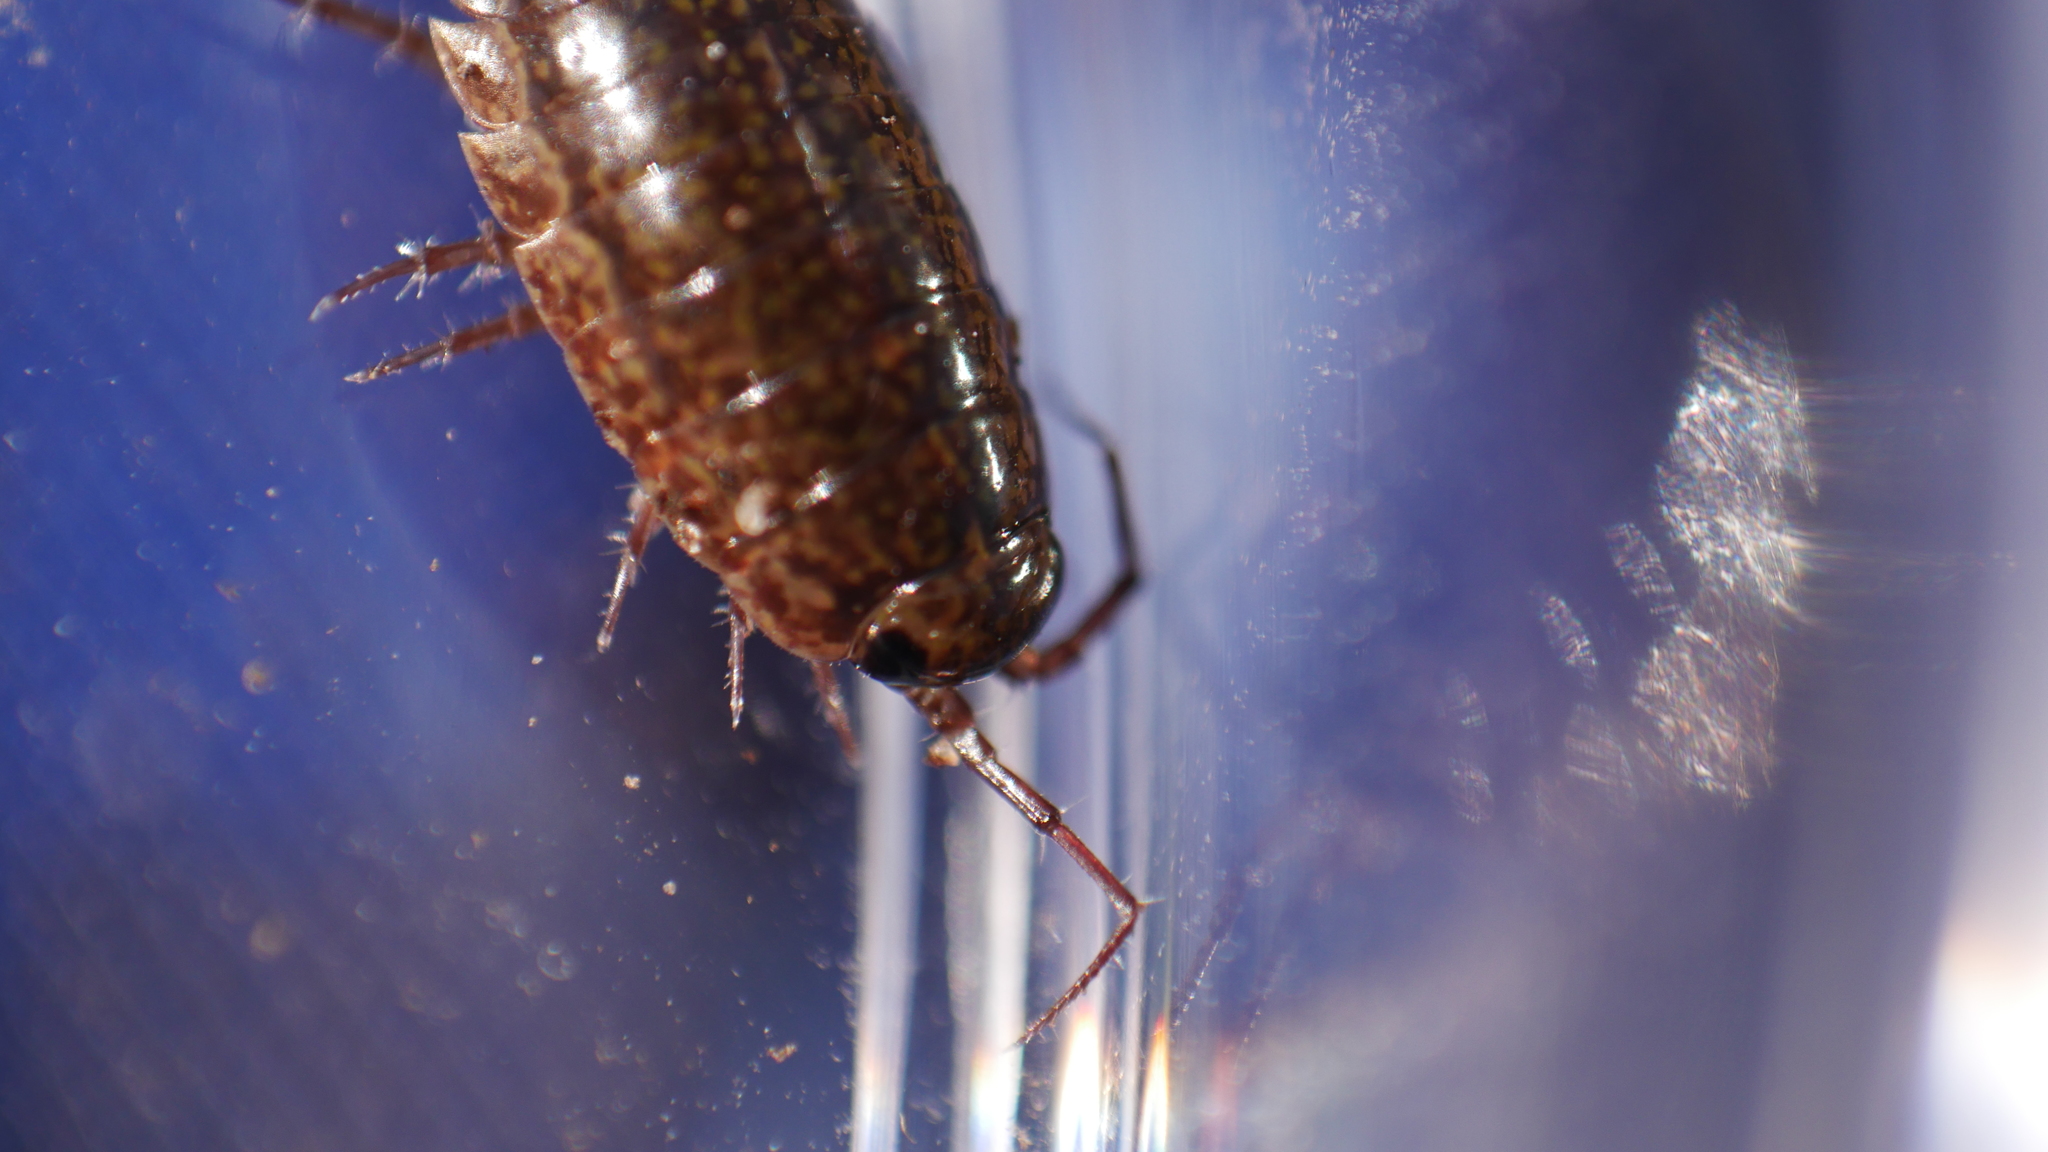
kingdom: Animalia
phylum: Arthropoda
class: Malacostraca
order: Isopoda
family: Ligiidae
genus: Ligidium
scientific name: Ligidium elrodii
